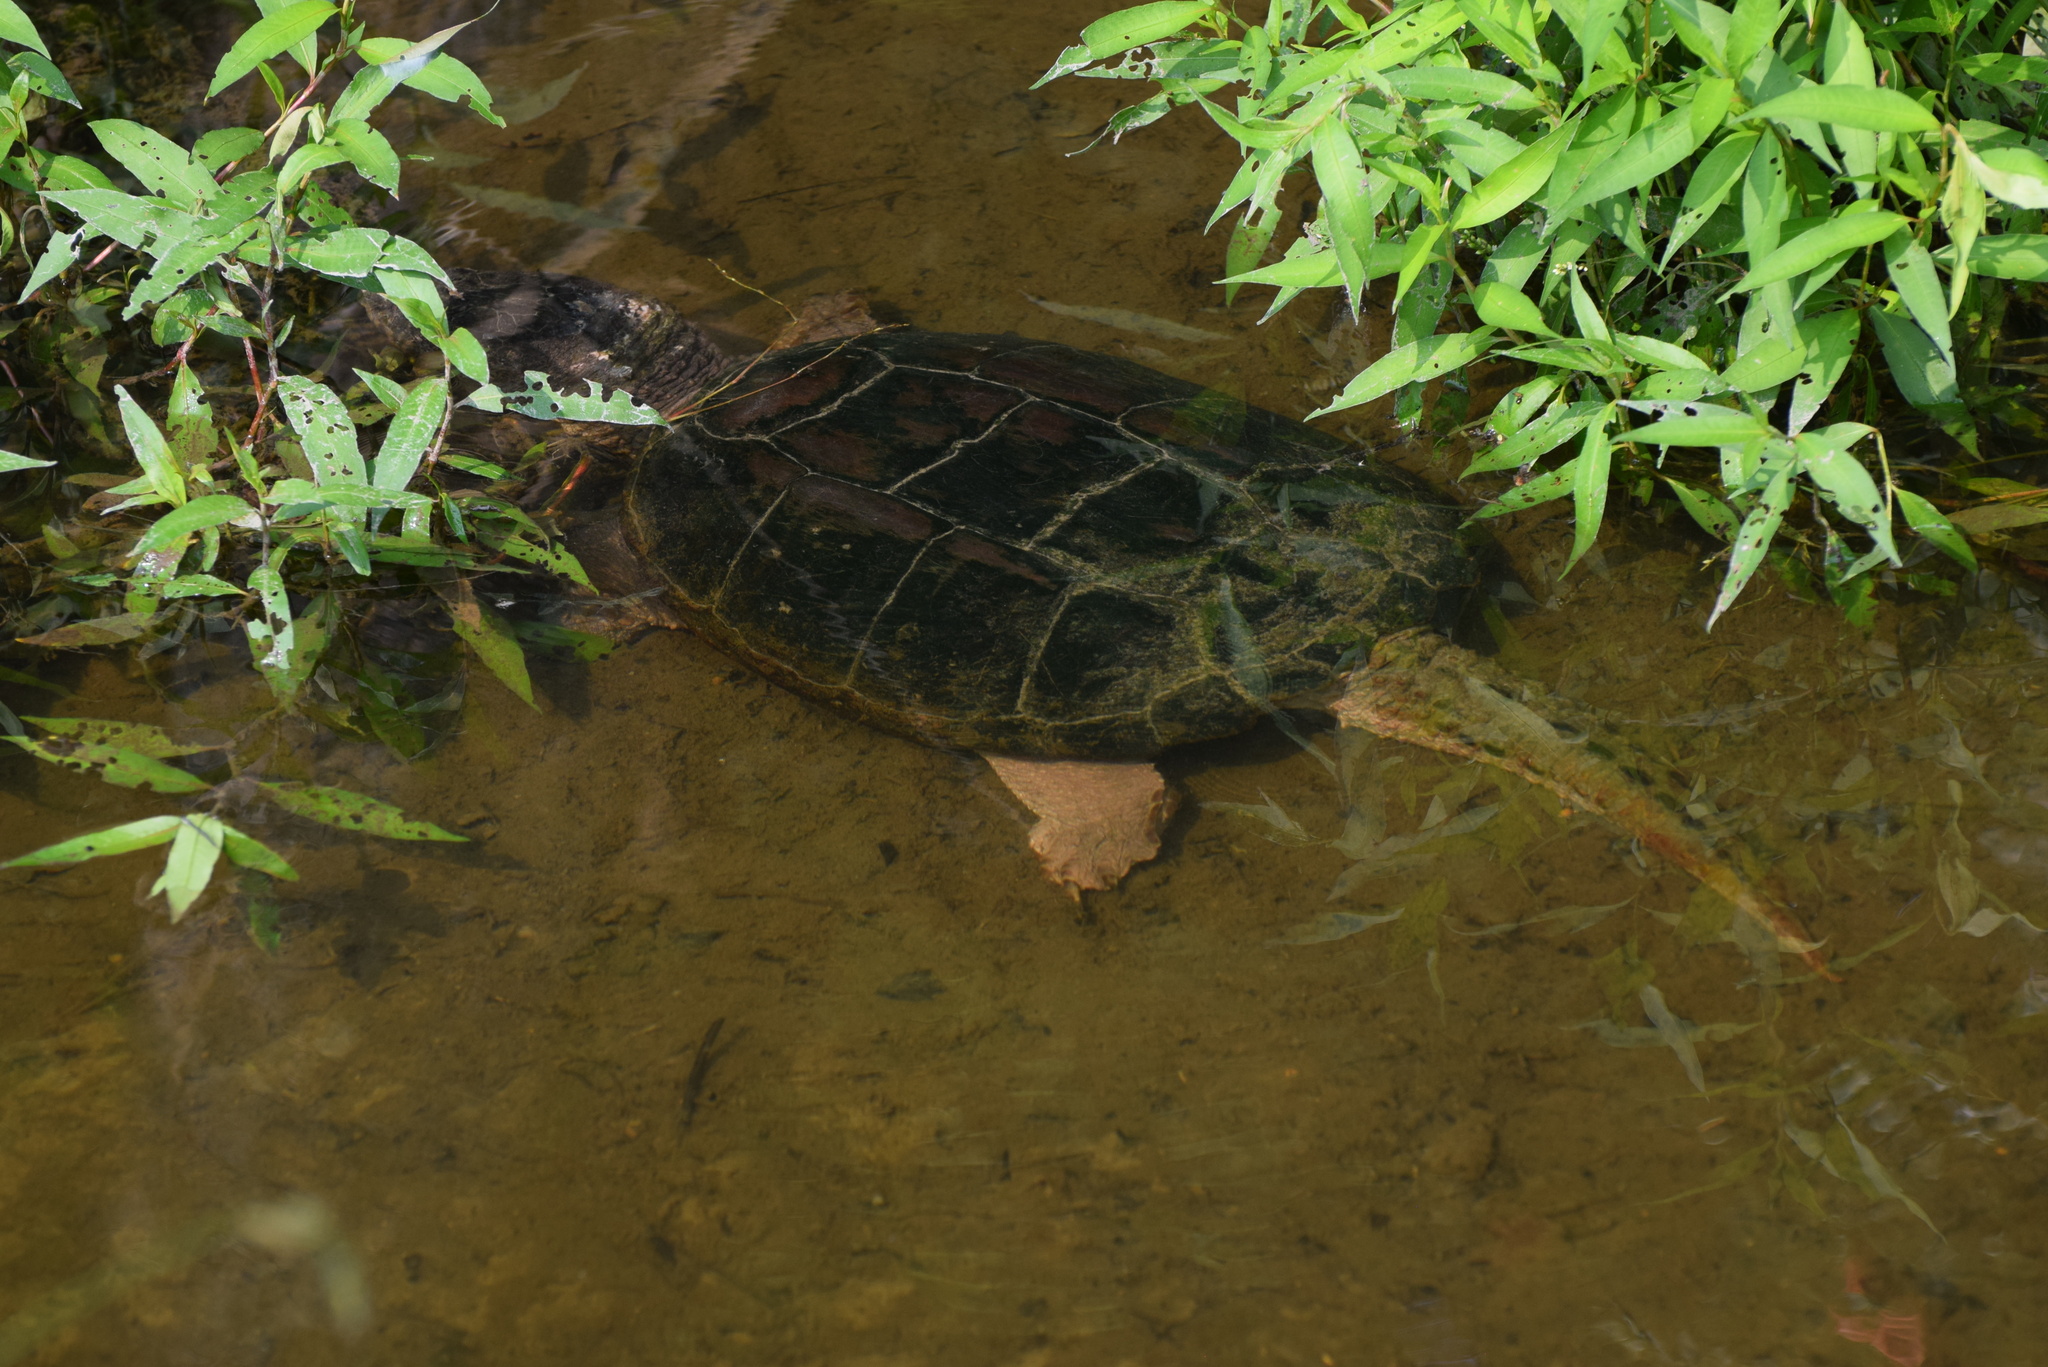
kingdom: Animalia
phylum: Chordata
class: Testudines
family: Chelydridae
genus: Chelydra
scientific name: Chelydra serpentina
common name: Common snapping turtle
